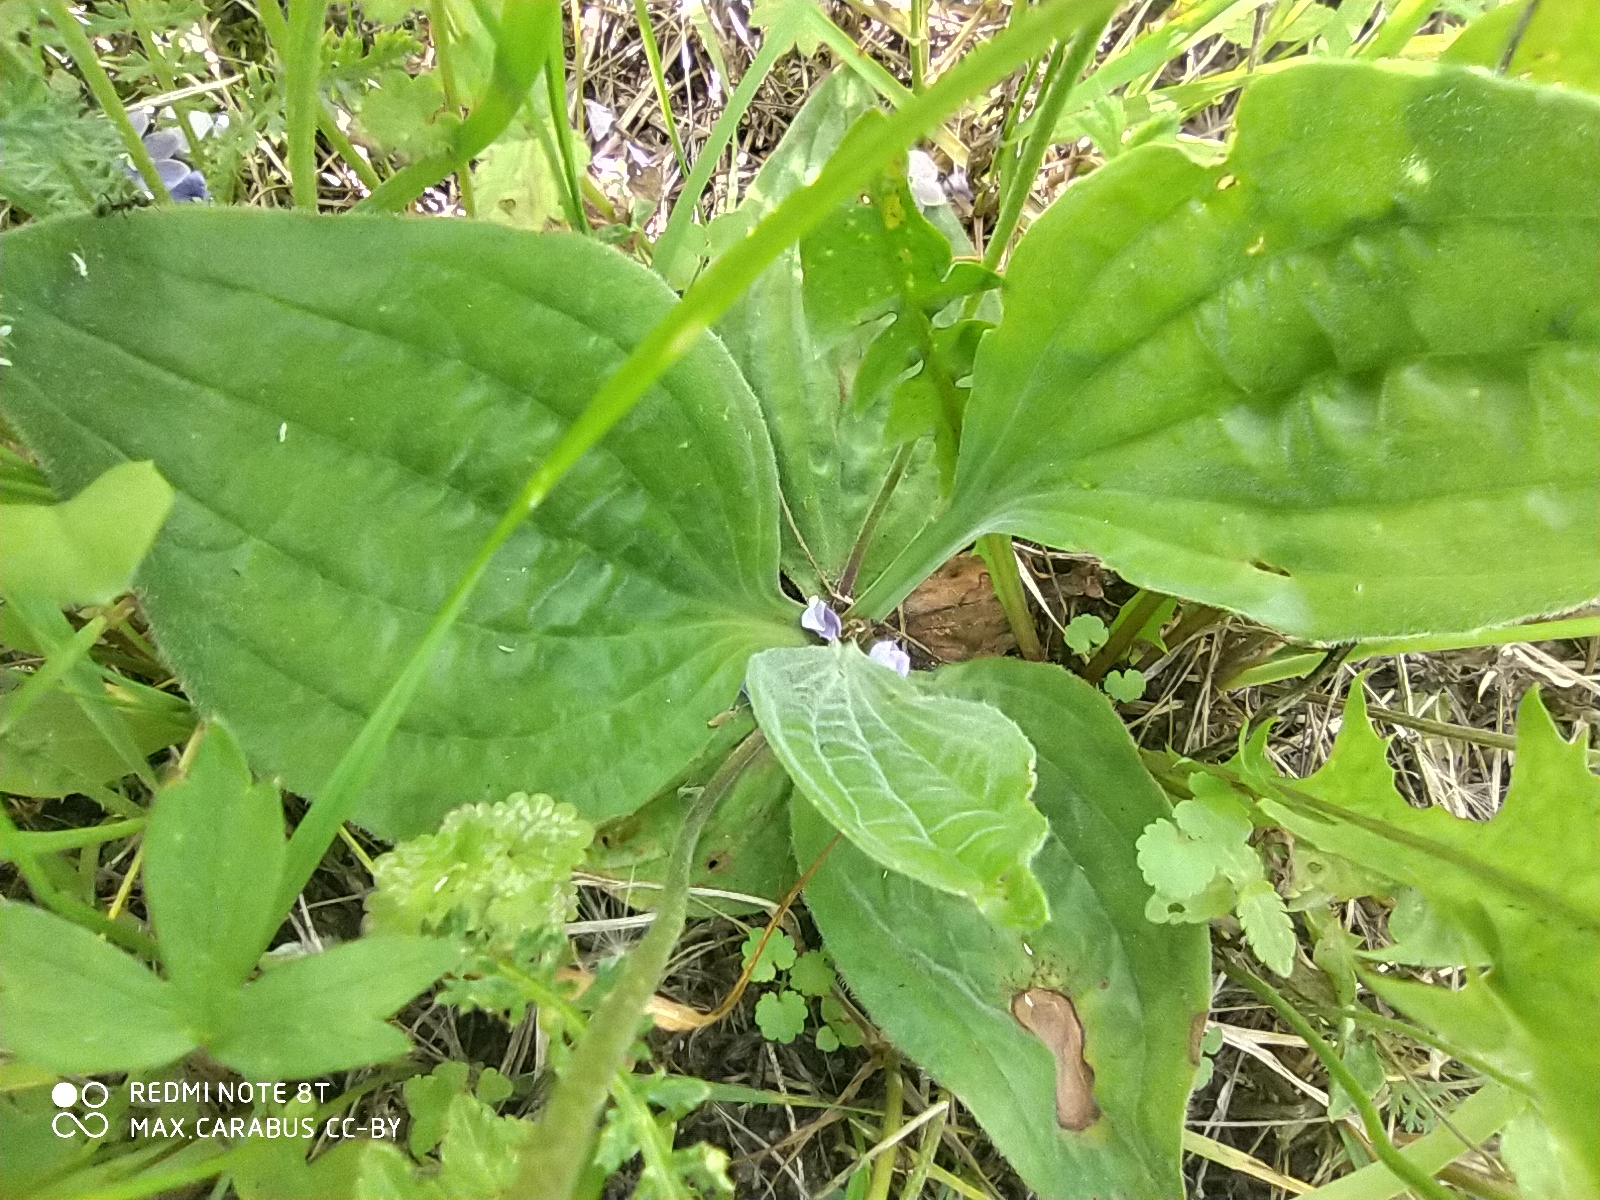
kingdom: Plantae
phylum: Tracheophyta
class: Magnoliopsida
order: Lamiales
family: Plantaginaceae
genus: Plantago
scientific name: Plantago media
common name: Hoary plantain
